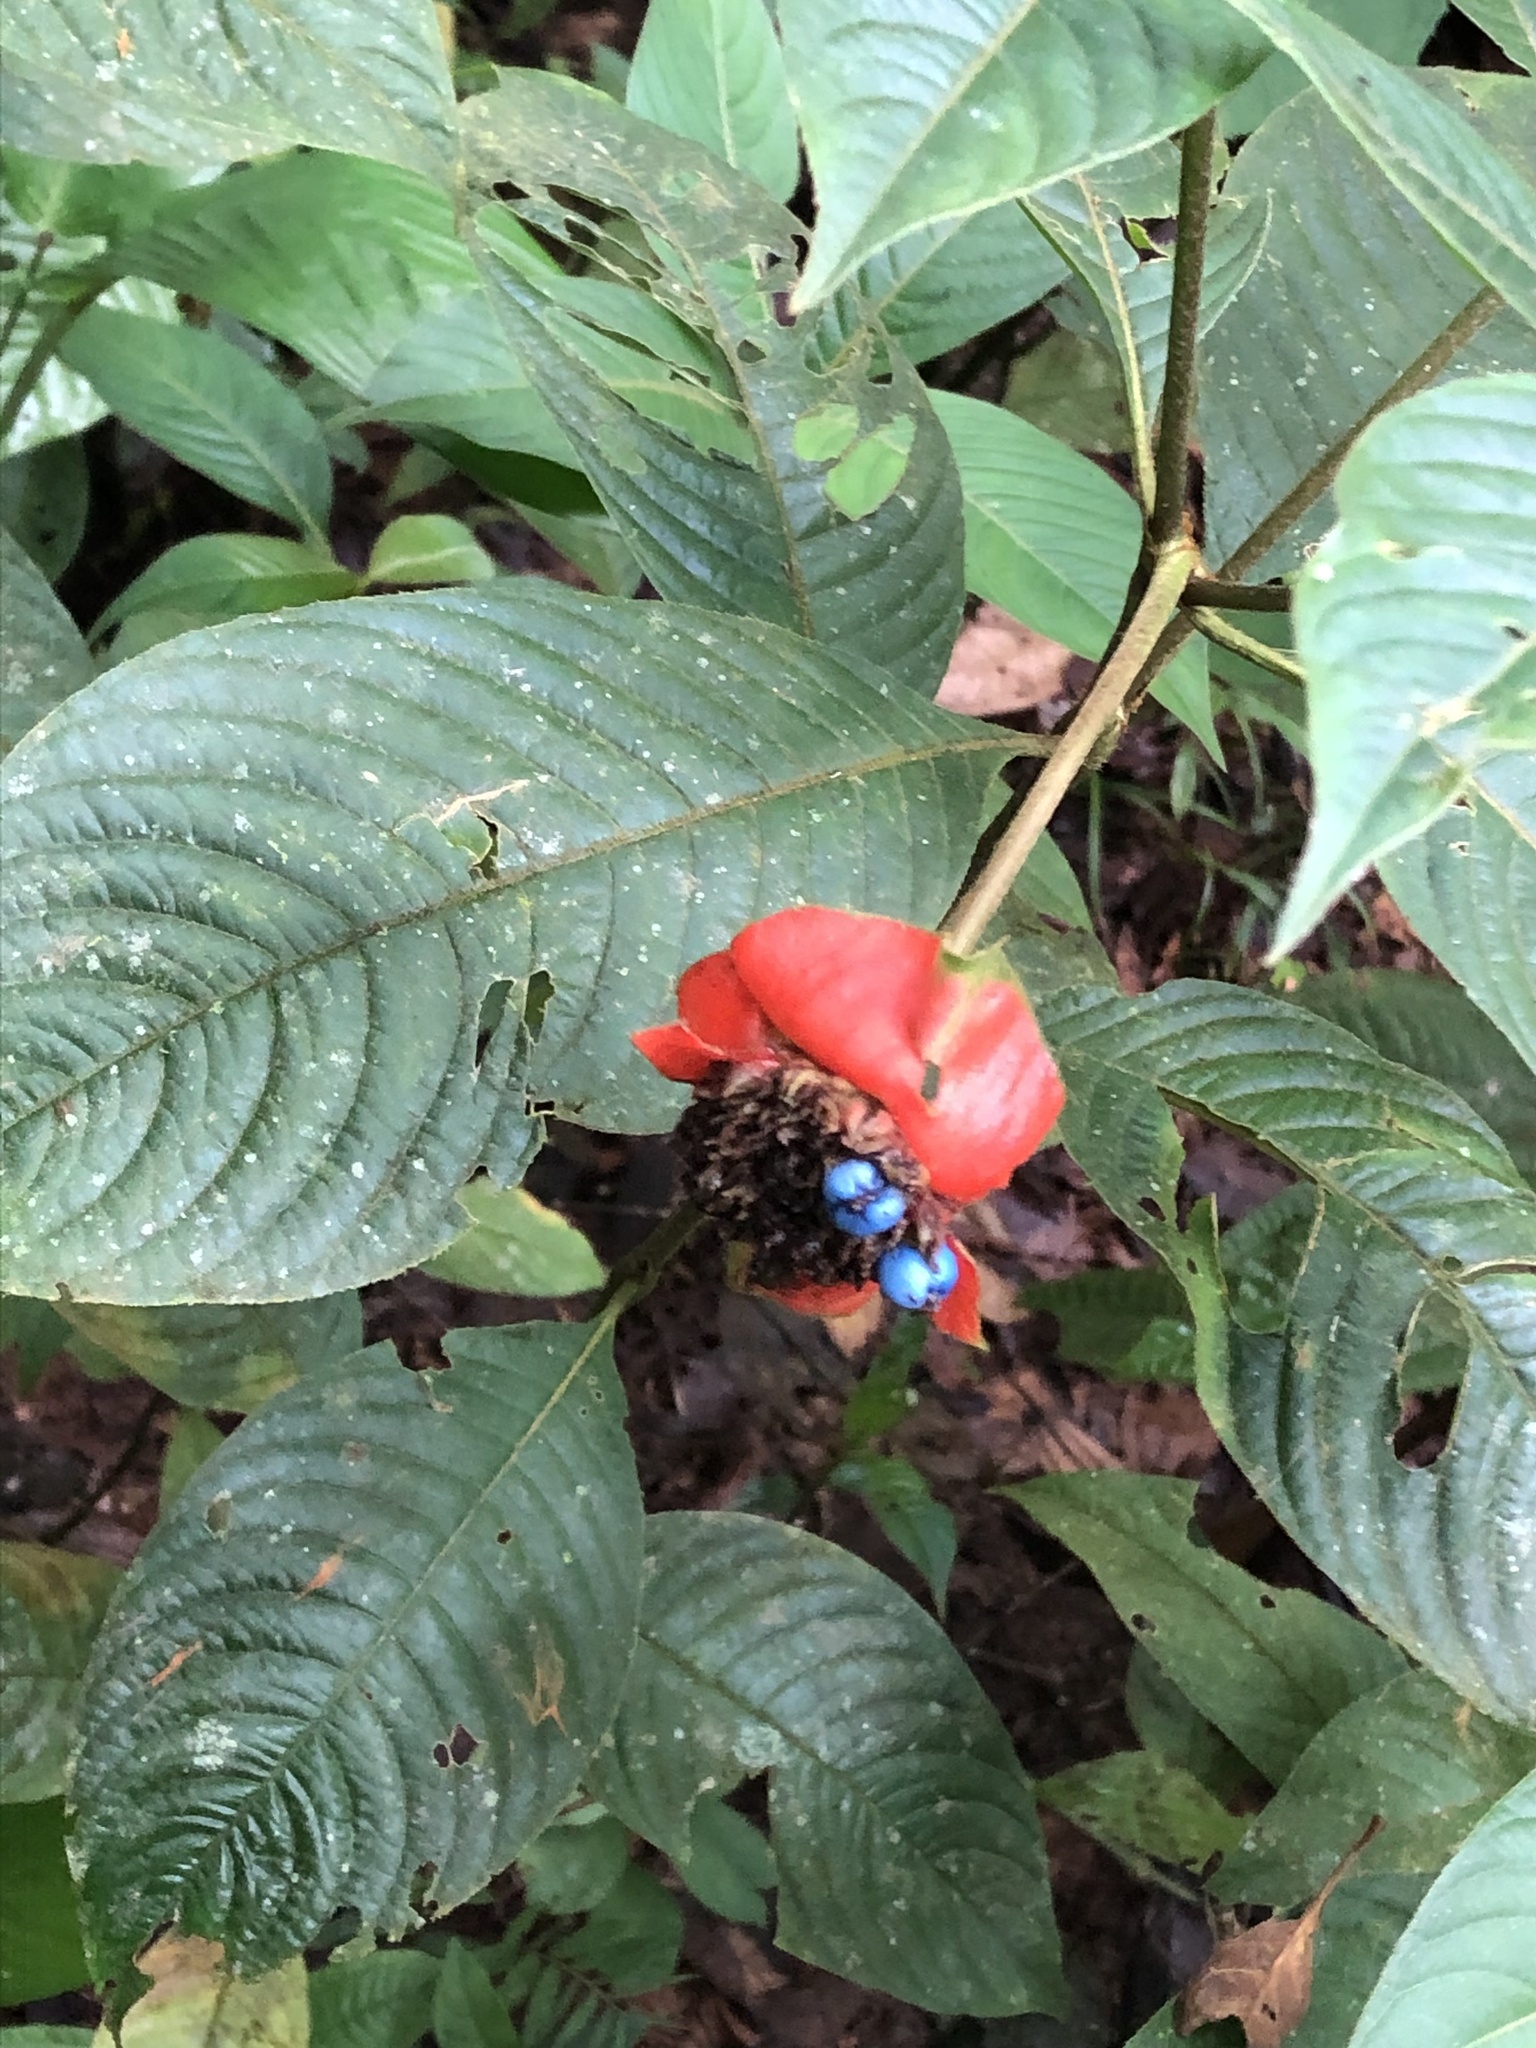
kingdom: Plantae
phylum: Tracheophyta
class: Magnoliopsida
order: Gentianales
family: Rubiaceae
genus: Palicourea
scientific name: Palicourea tomentosa
